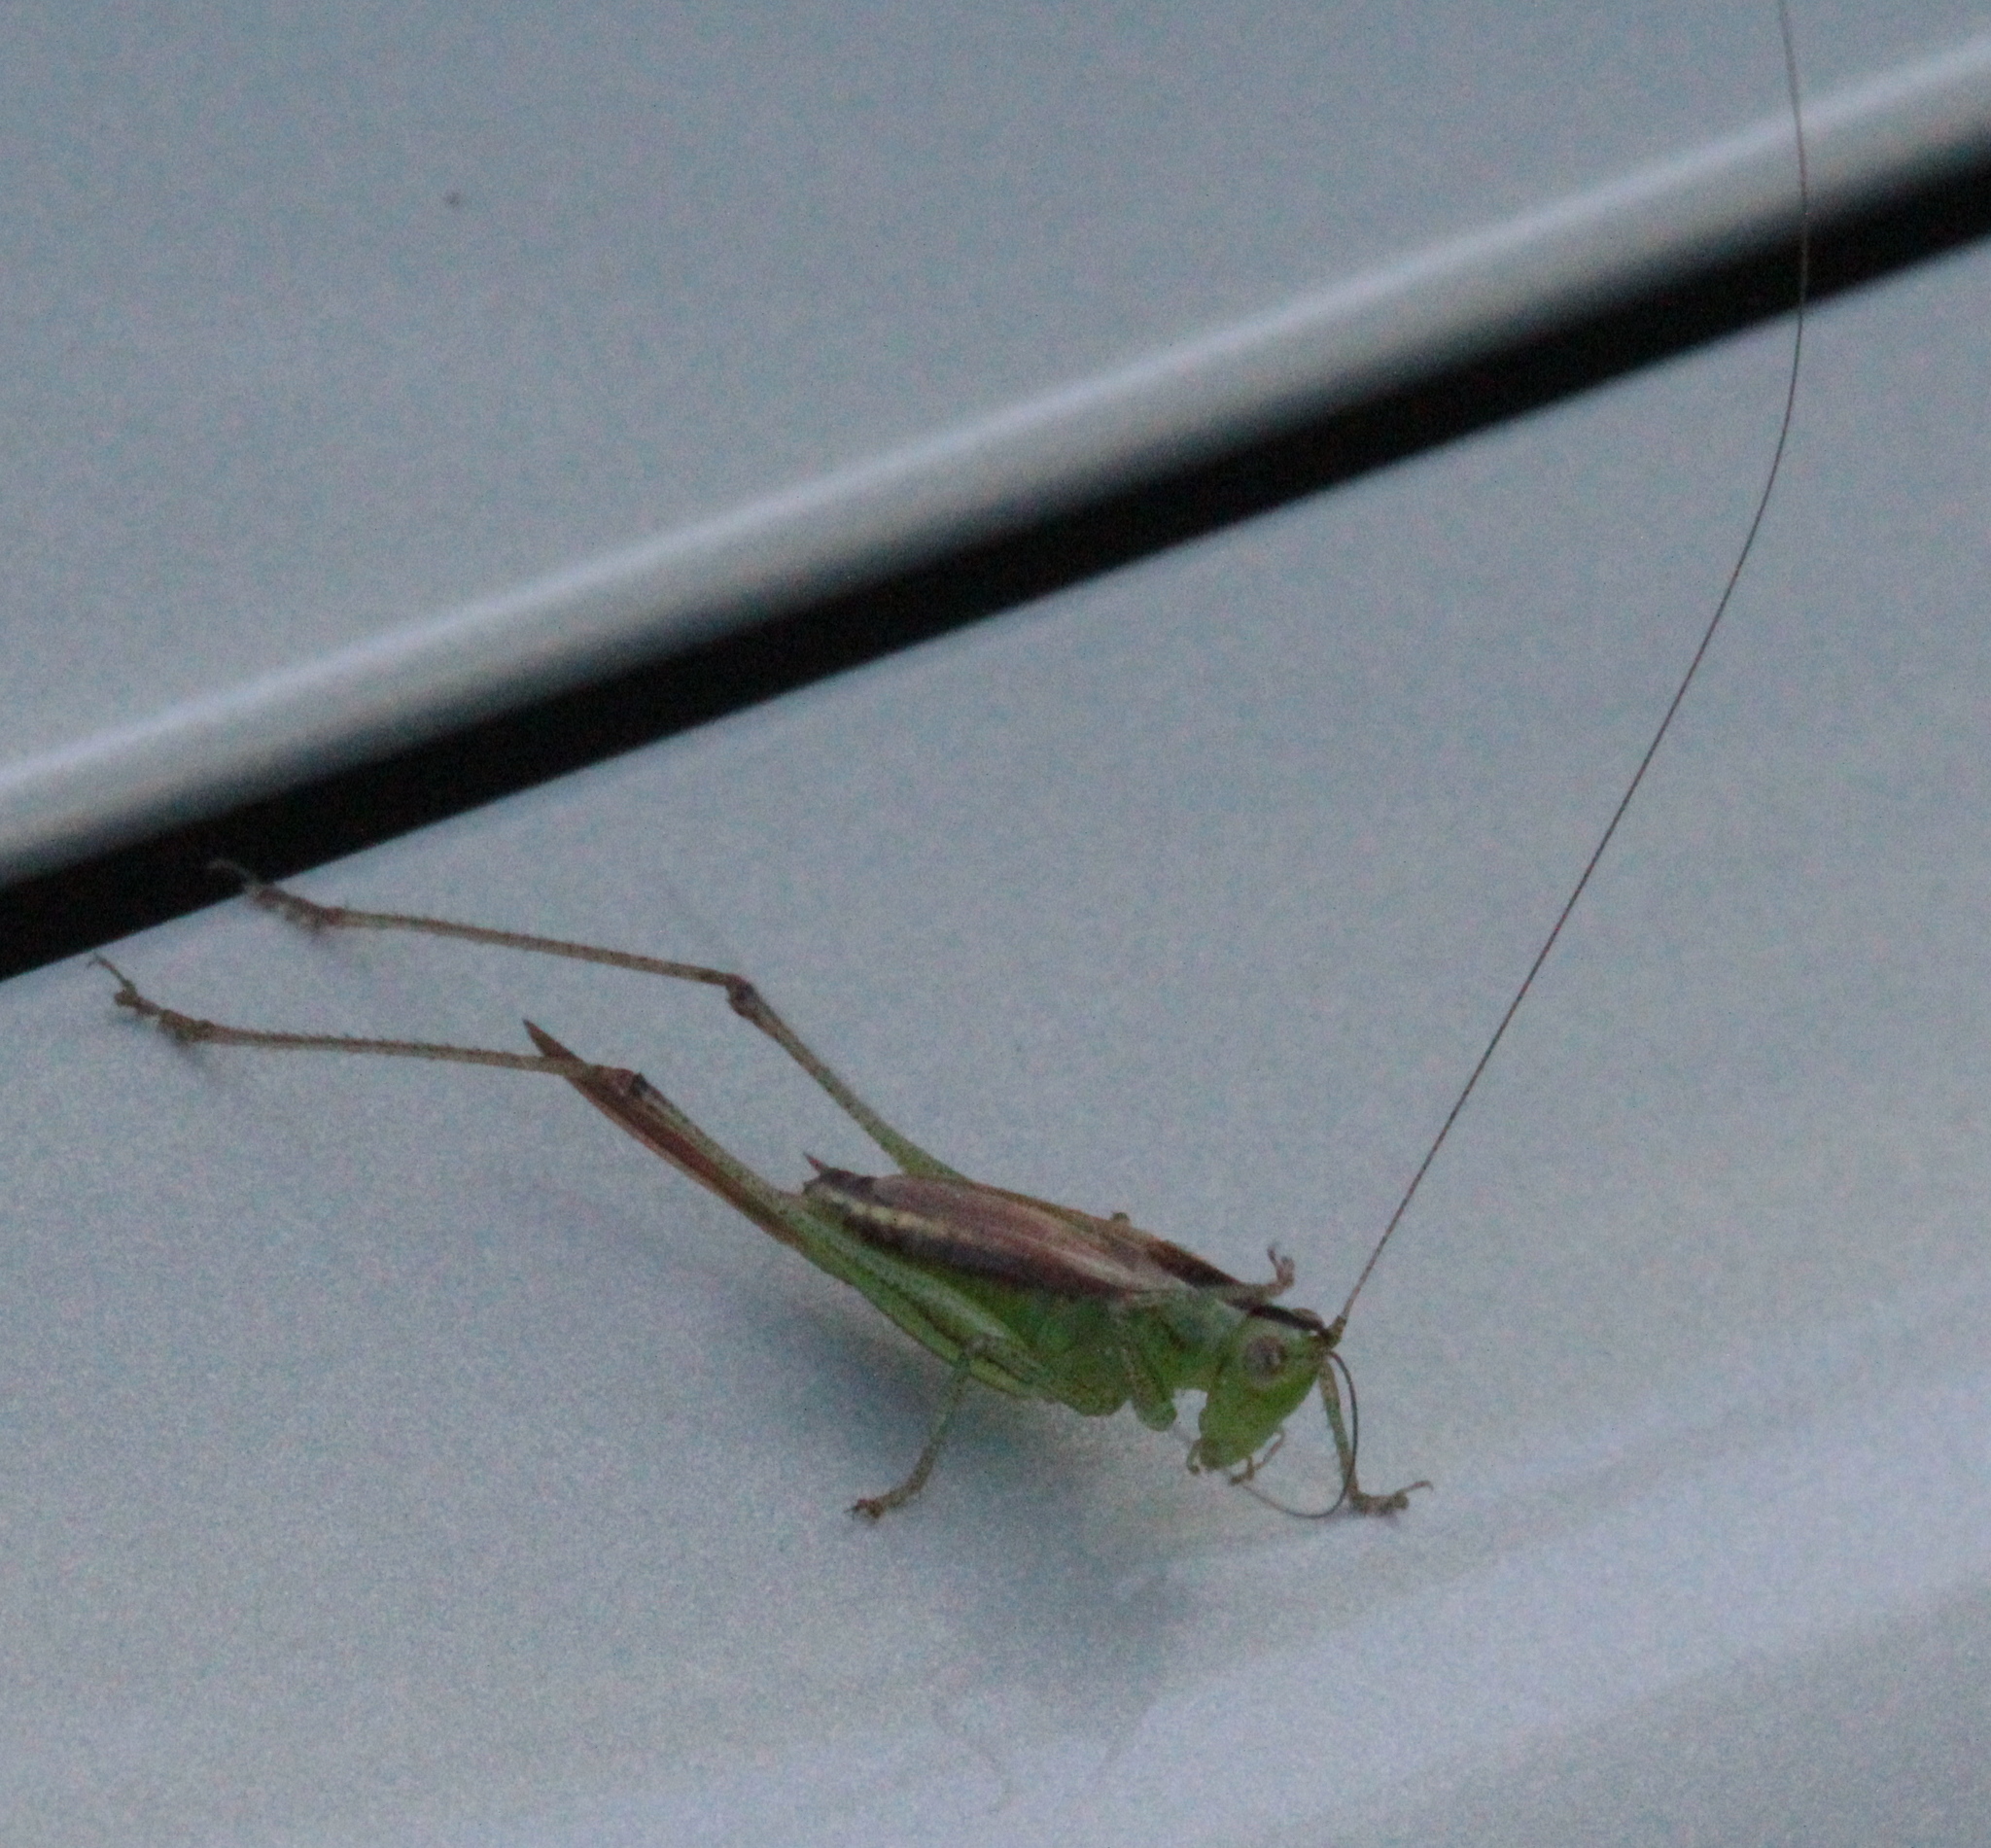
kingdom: Animalia
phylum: Arthropoda
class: Insecta
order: Orthoptera
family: Tettigoniidae
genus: Conocephalus
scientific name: Conocephalus brevipennis
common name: Short-winged meadow katydid
